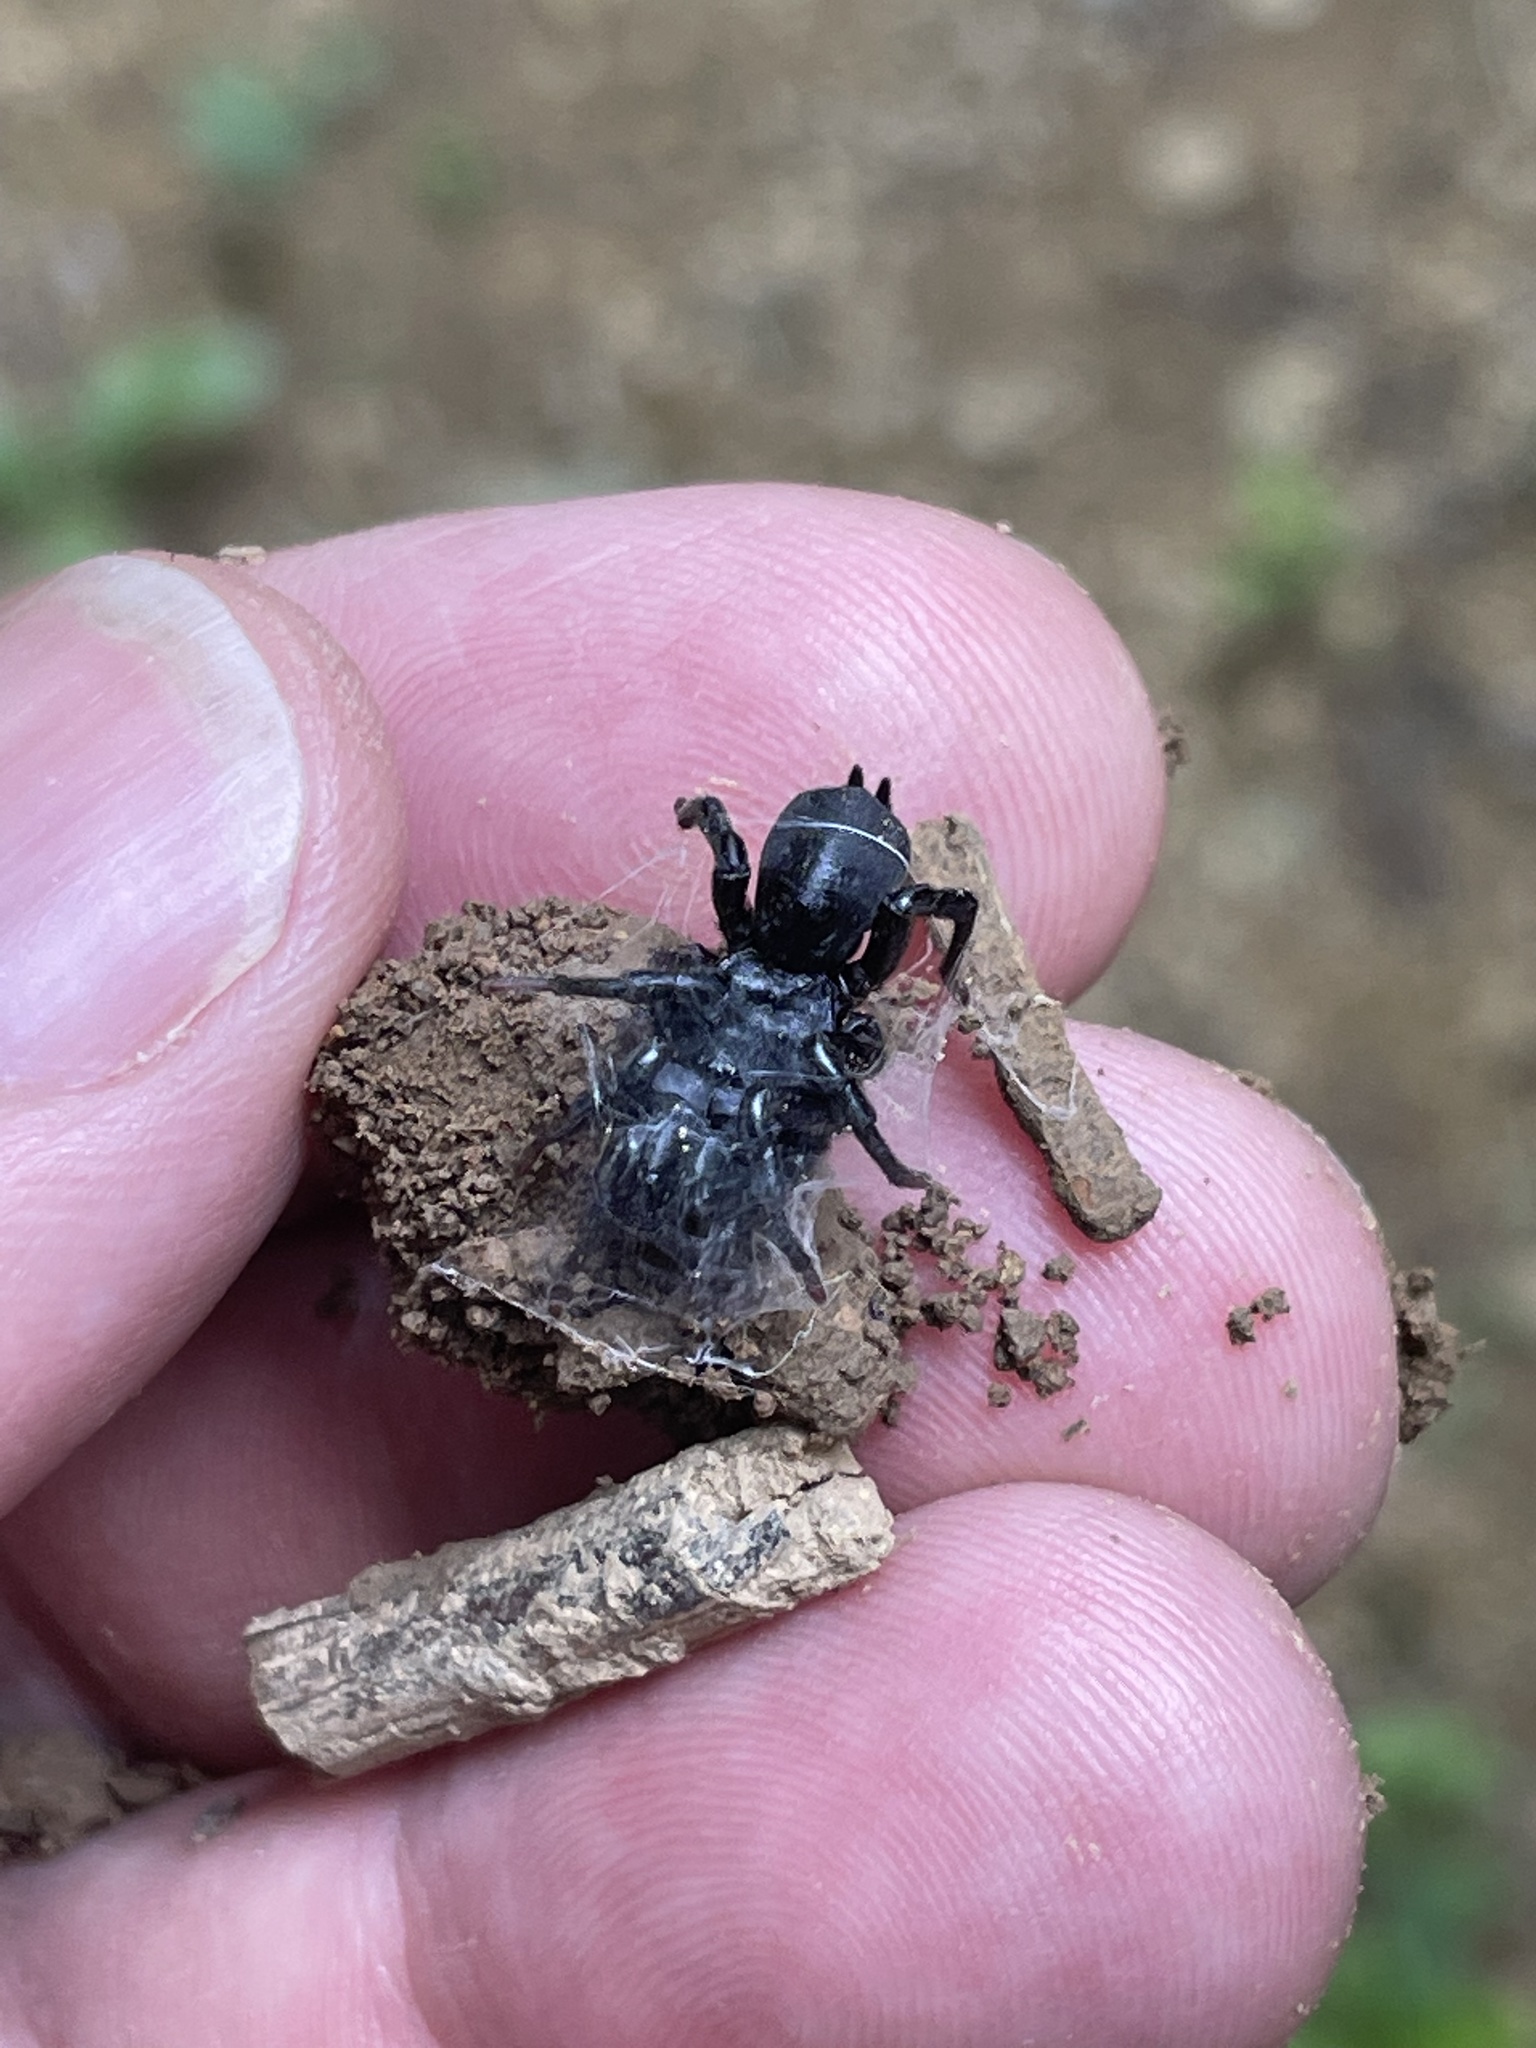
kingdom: Animalia
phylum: Arthropoda
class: Arachnida
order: Araneae
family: Atypidae
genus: Sphodros
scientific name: Sphodros niger
